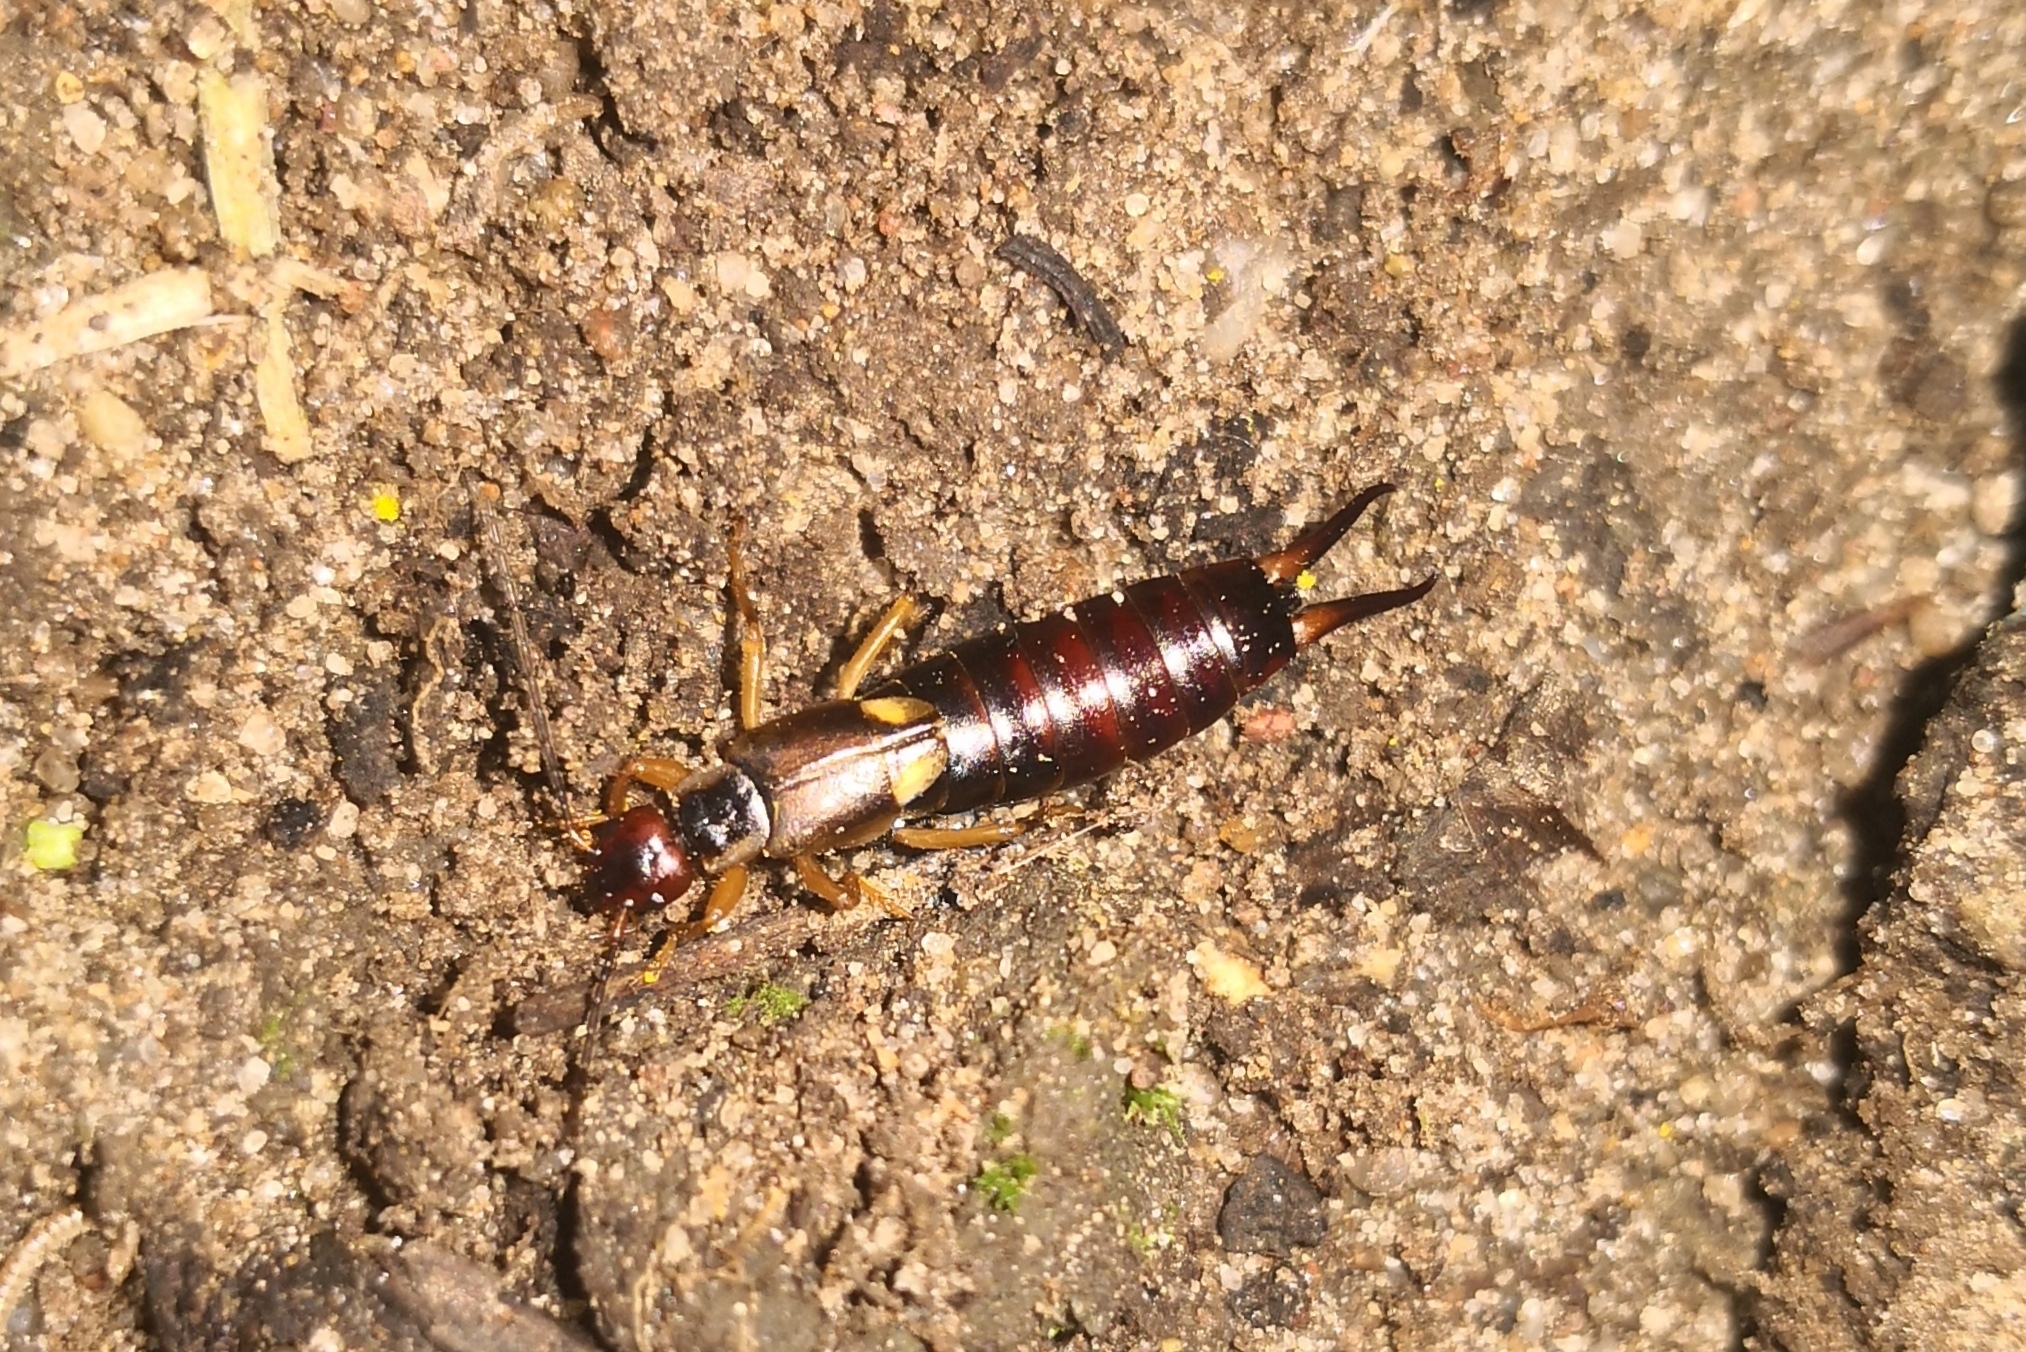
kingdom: Animalia
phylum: Arthropoda
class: Insecta
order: Dermaptera
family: Forficulidae
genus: Forficula
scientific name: Forficula
